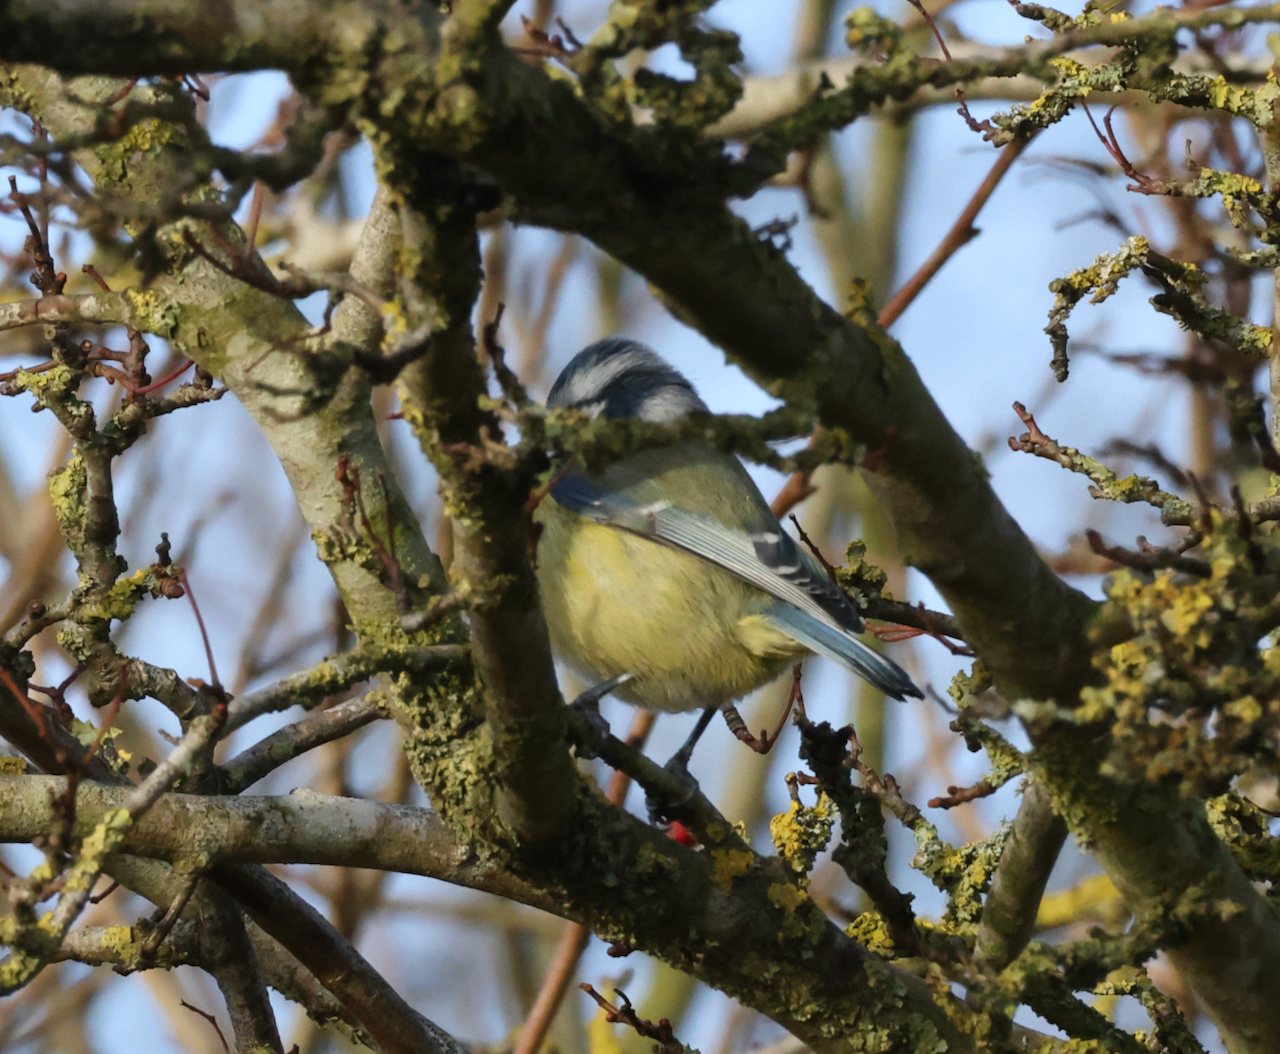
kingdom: Animalia
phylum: Chordata
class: Aves
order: Passeriformes
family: Paridae
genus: Cyanistes
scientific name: Cyanistes caeruleus
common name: Eurasian blue tit
